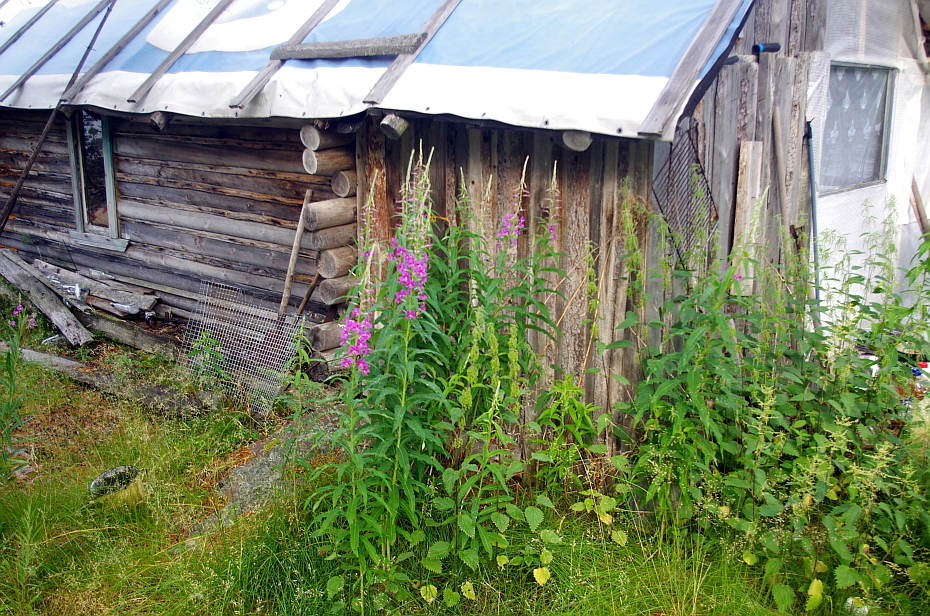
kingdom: Plantae
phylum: Tracheophyta
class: Magnoliopsida
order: Rosales
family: Urticaceae
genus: Urtica
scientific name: Urtica dioica
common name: Common nettle
